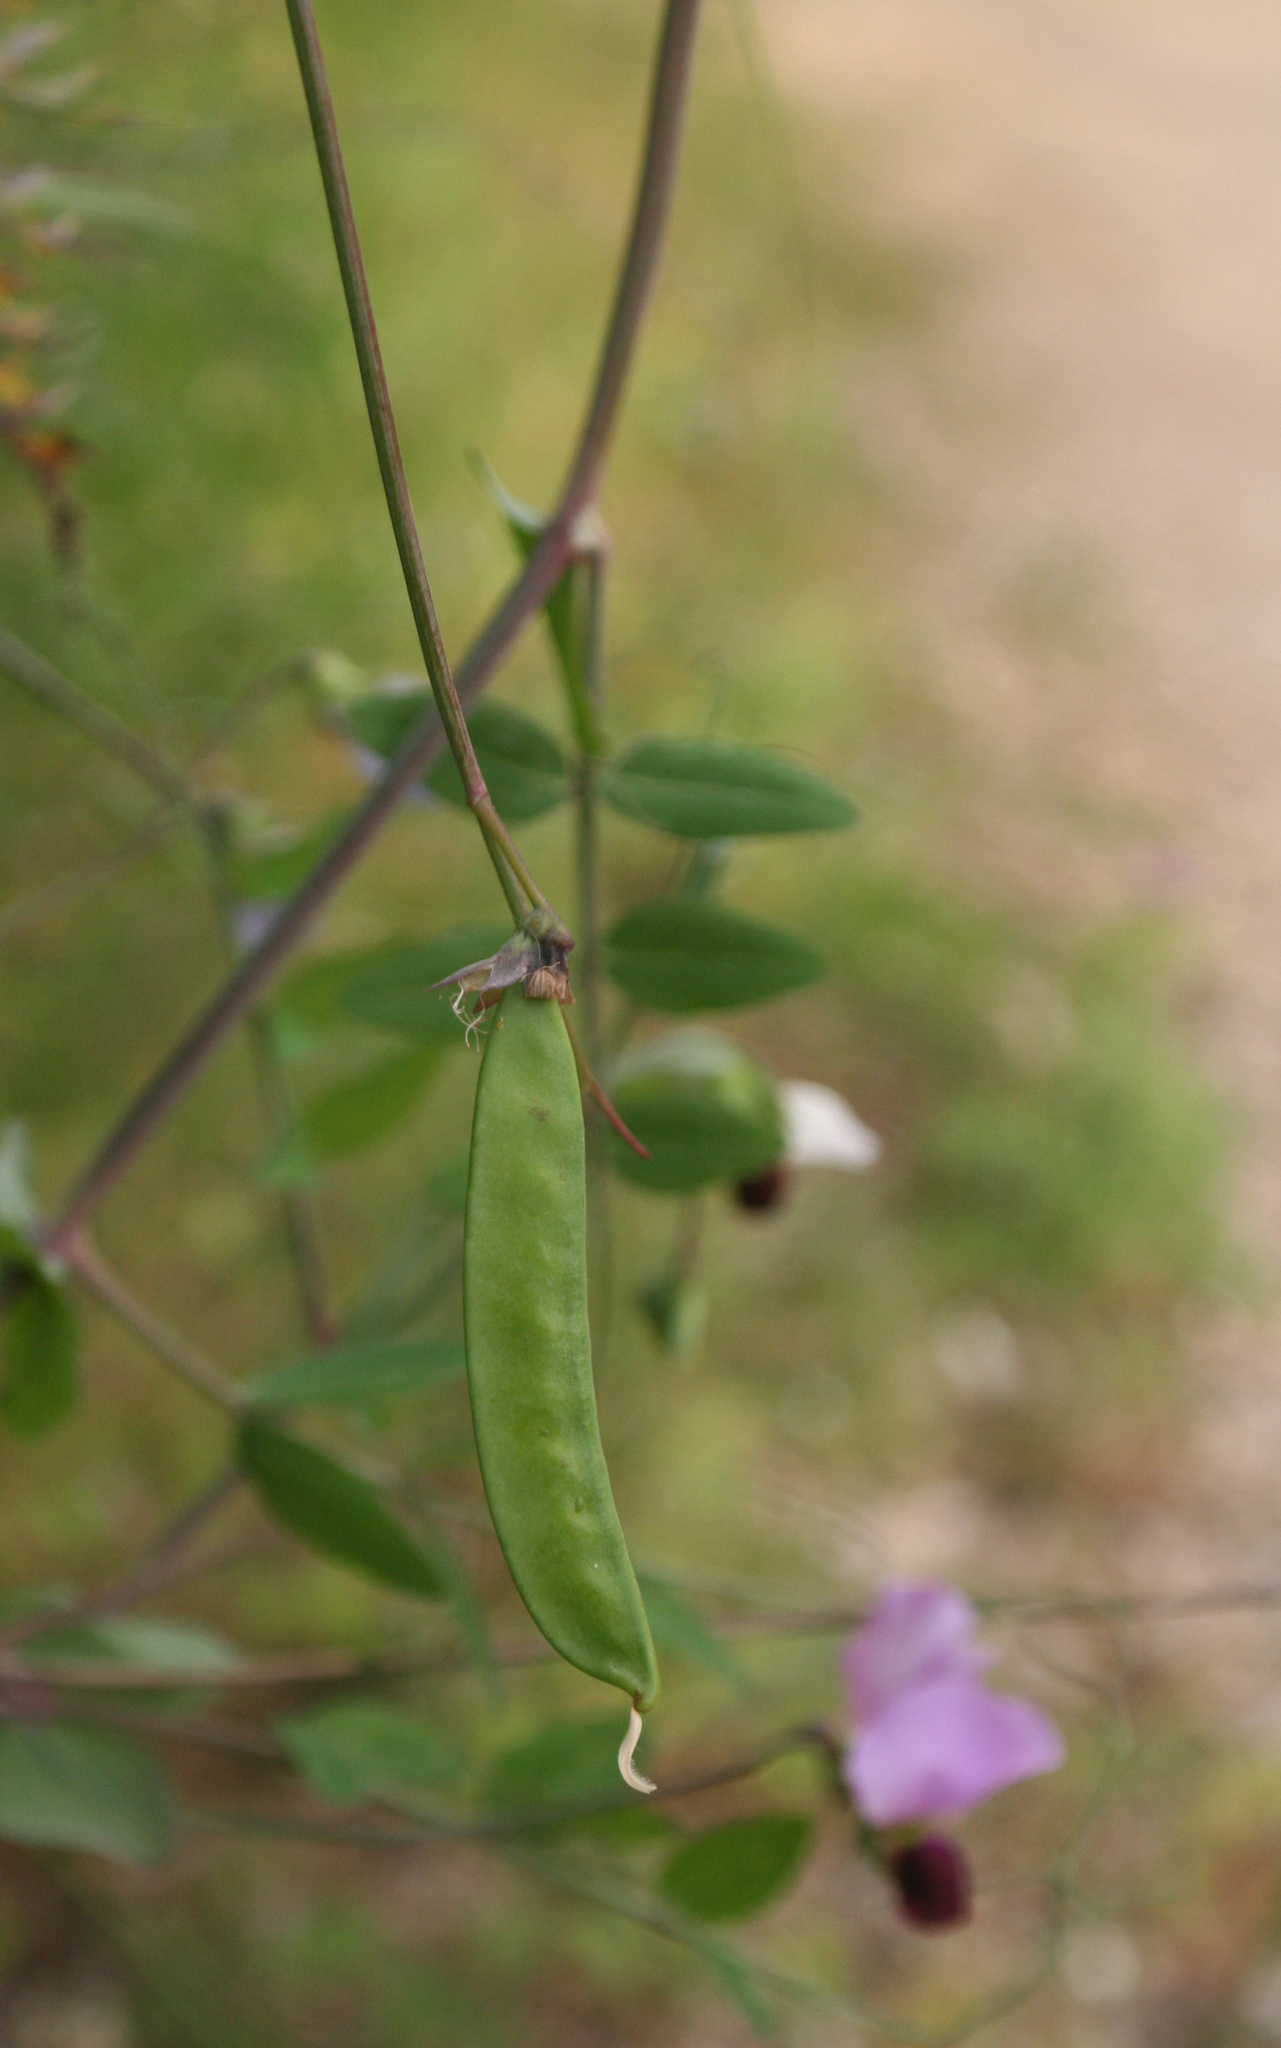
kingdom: Plantae
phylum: Tracheophyta
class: Magnoliopsida
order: Fabales
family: Fabaceae
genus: Lathyrus
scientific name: Lathyrus oleraceus
